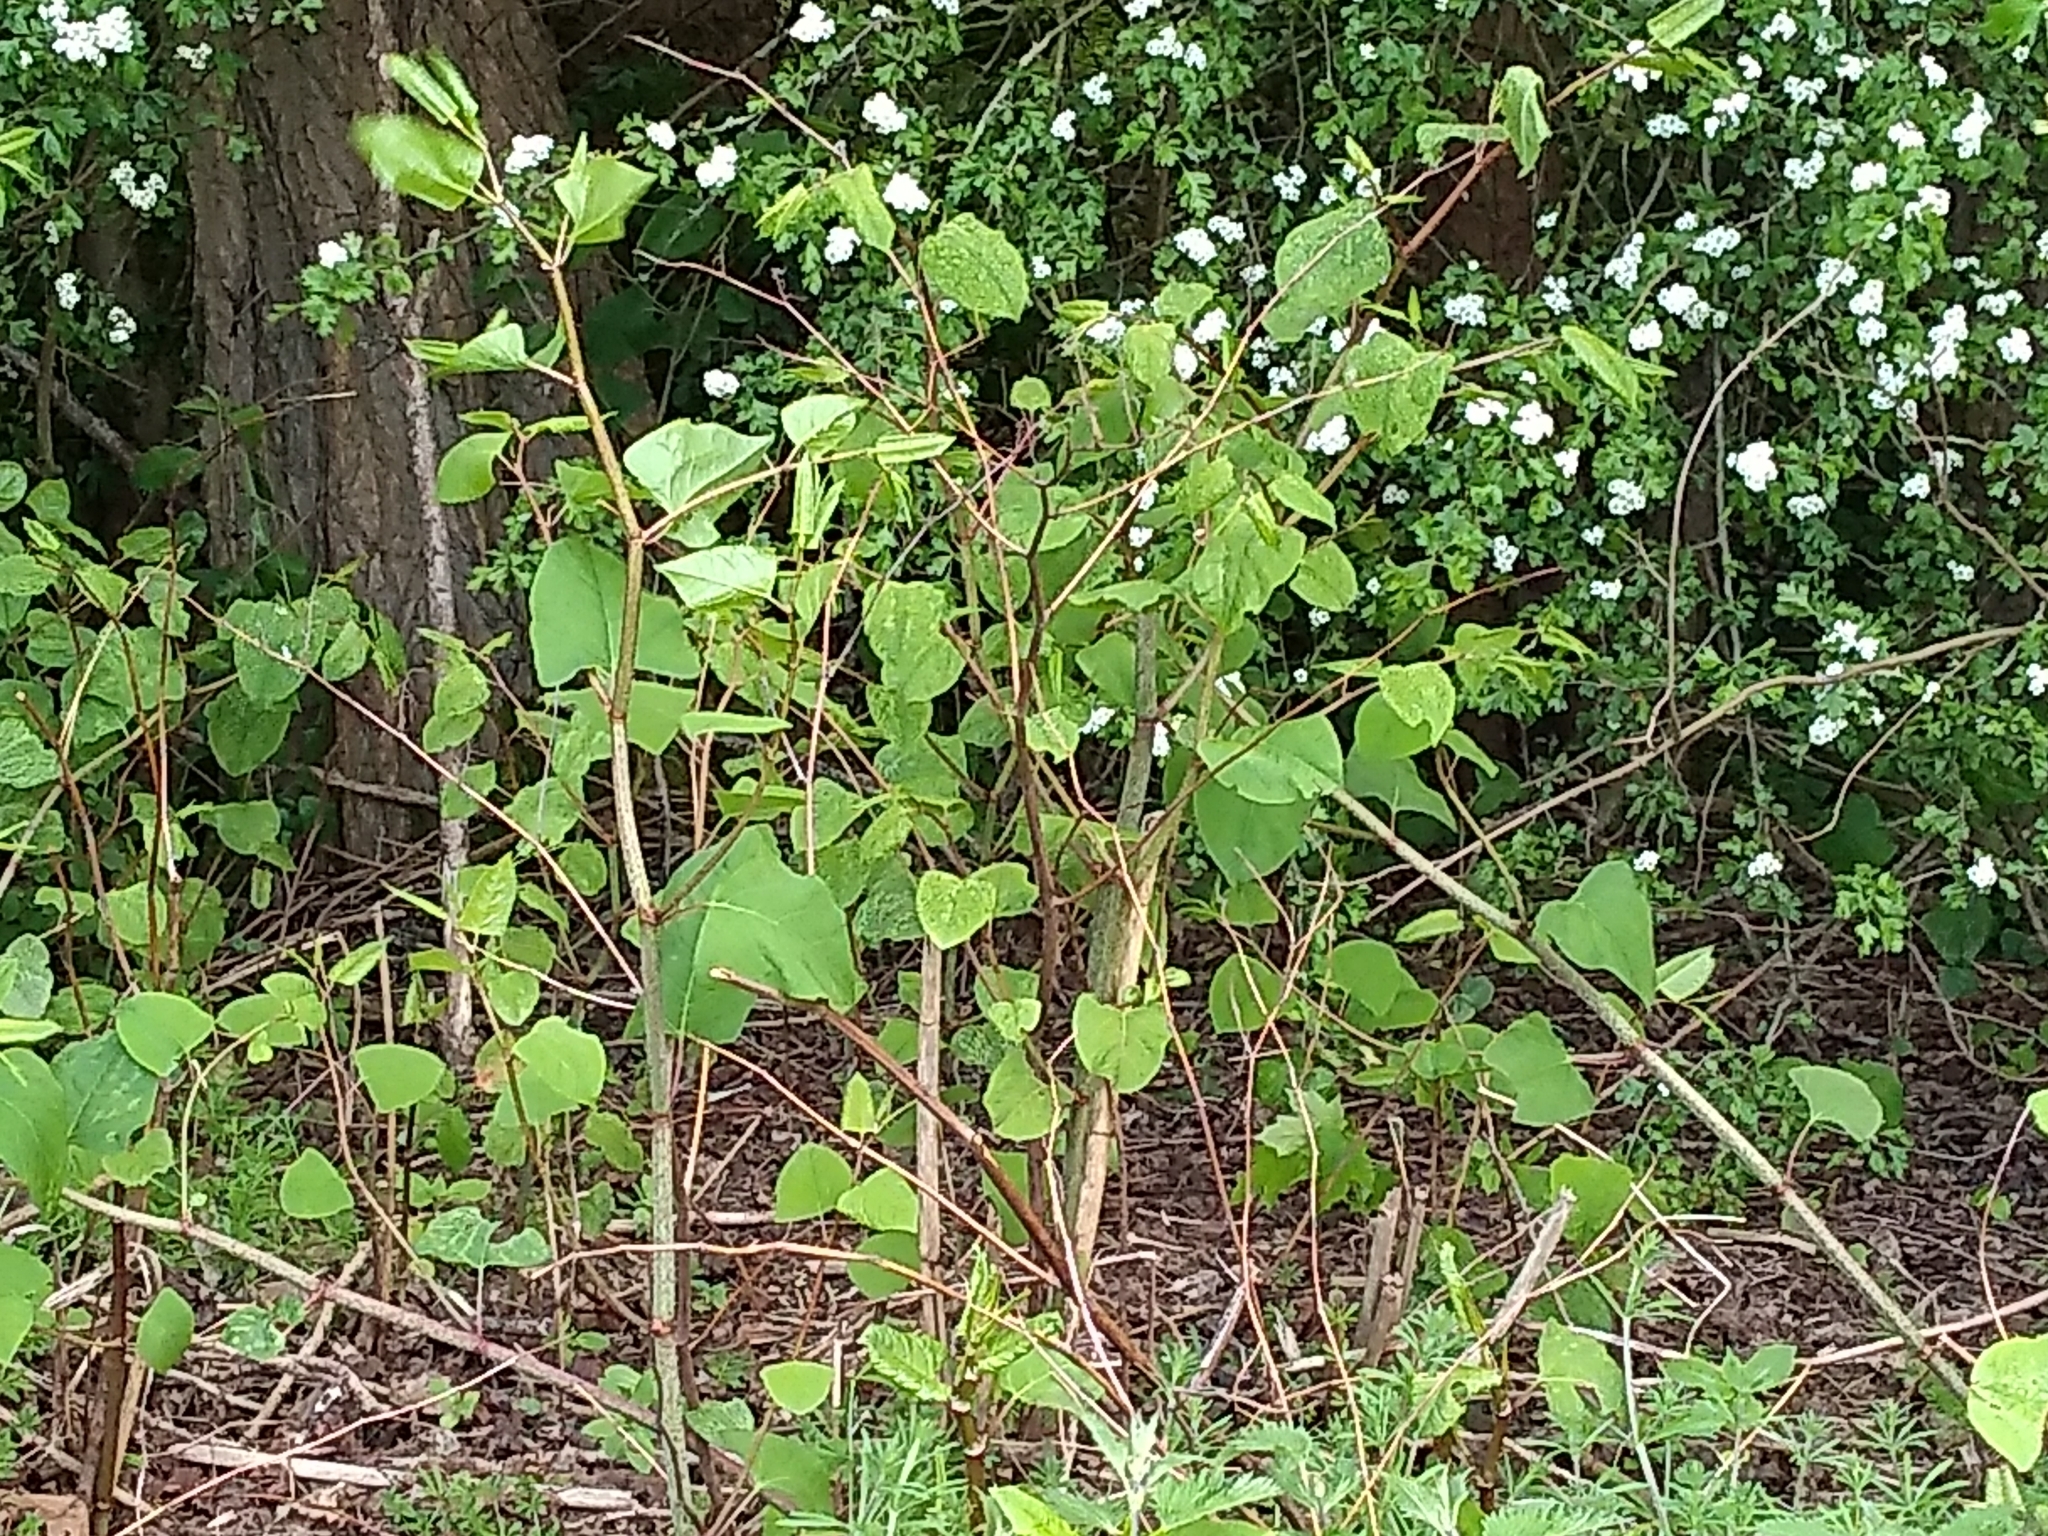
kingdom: Plantae
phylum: Tracheophyta
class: Magnoliopsida
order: Caryophyllales
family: Polygonaceae
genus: Reynoutria
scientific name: Reynoutria japonica
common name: Japanese knotweed
